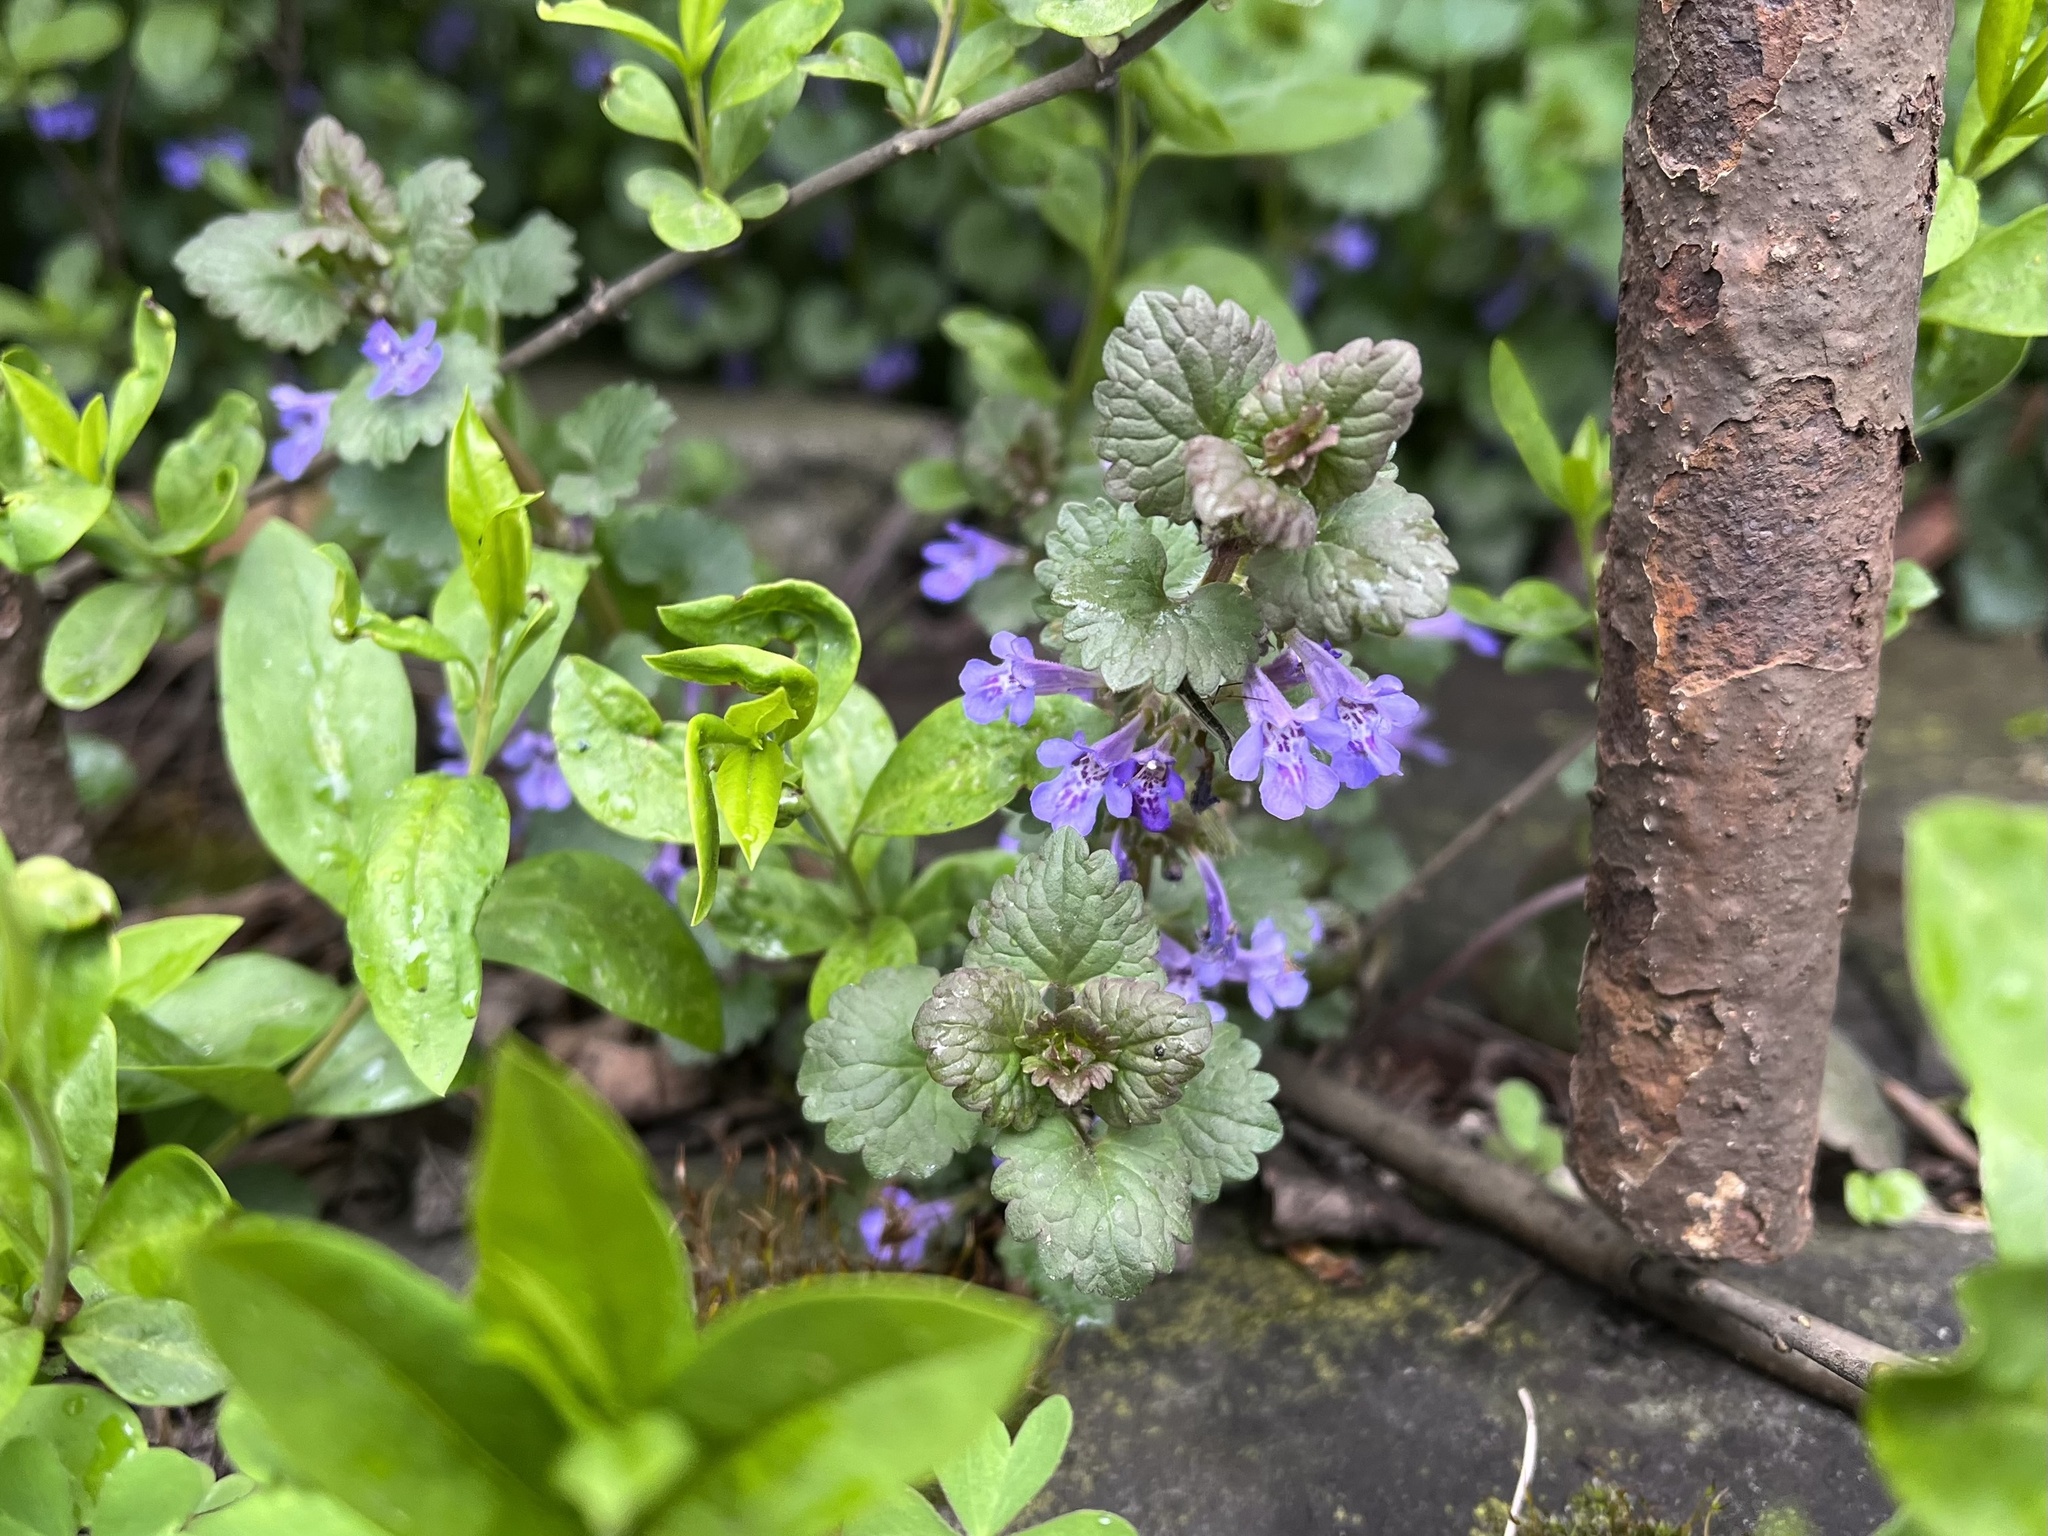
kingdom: Plantae
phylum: Tracheophyta
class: Magnoliopsida
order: Lamiales
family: Lamiaceae
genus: Glechoma
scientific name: Glechoma hederacea
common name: Ground ivy
